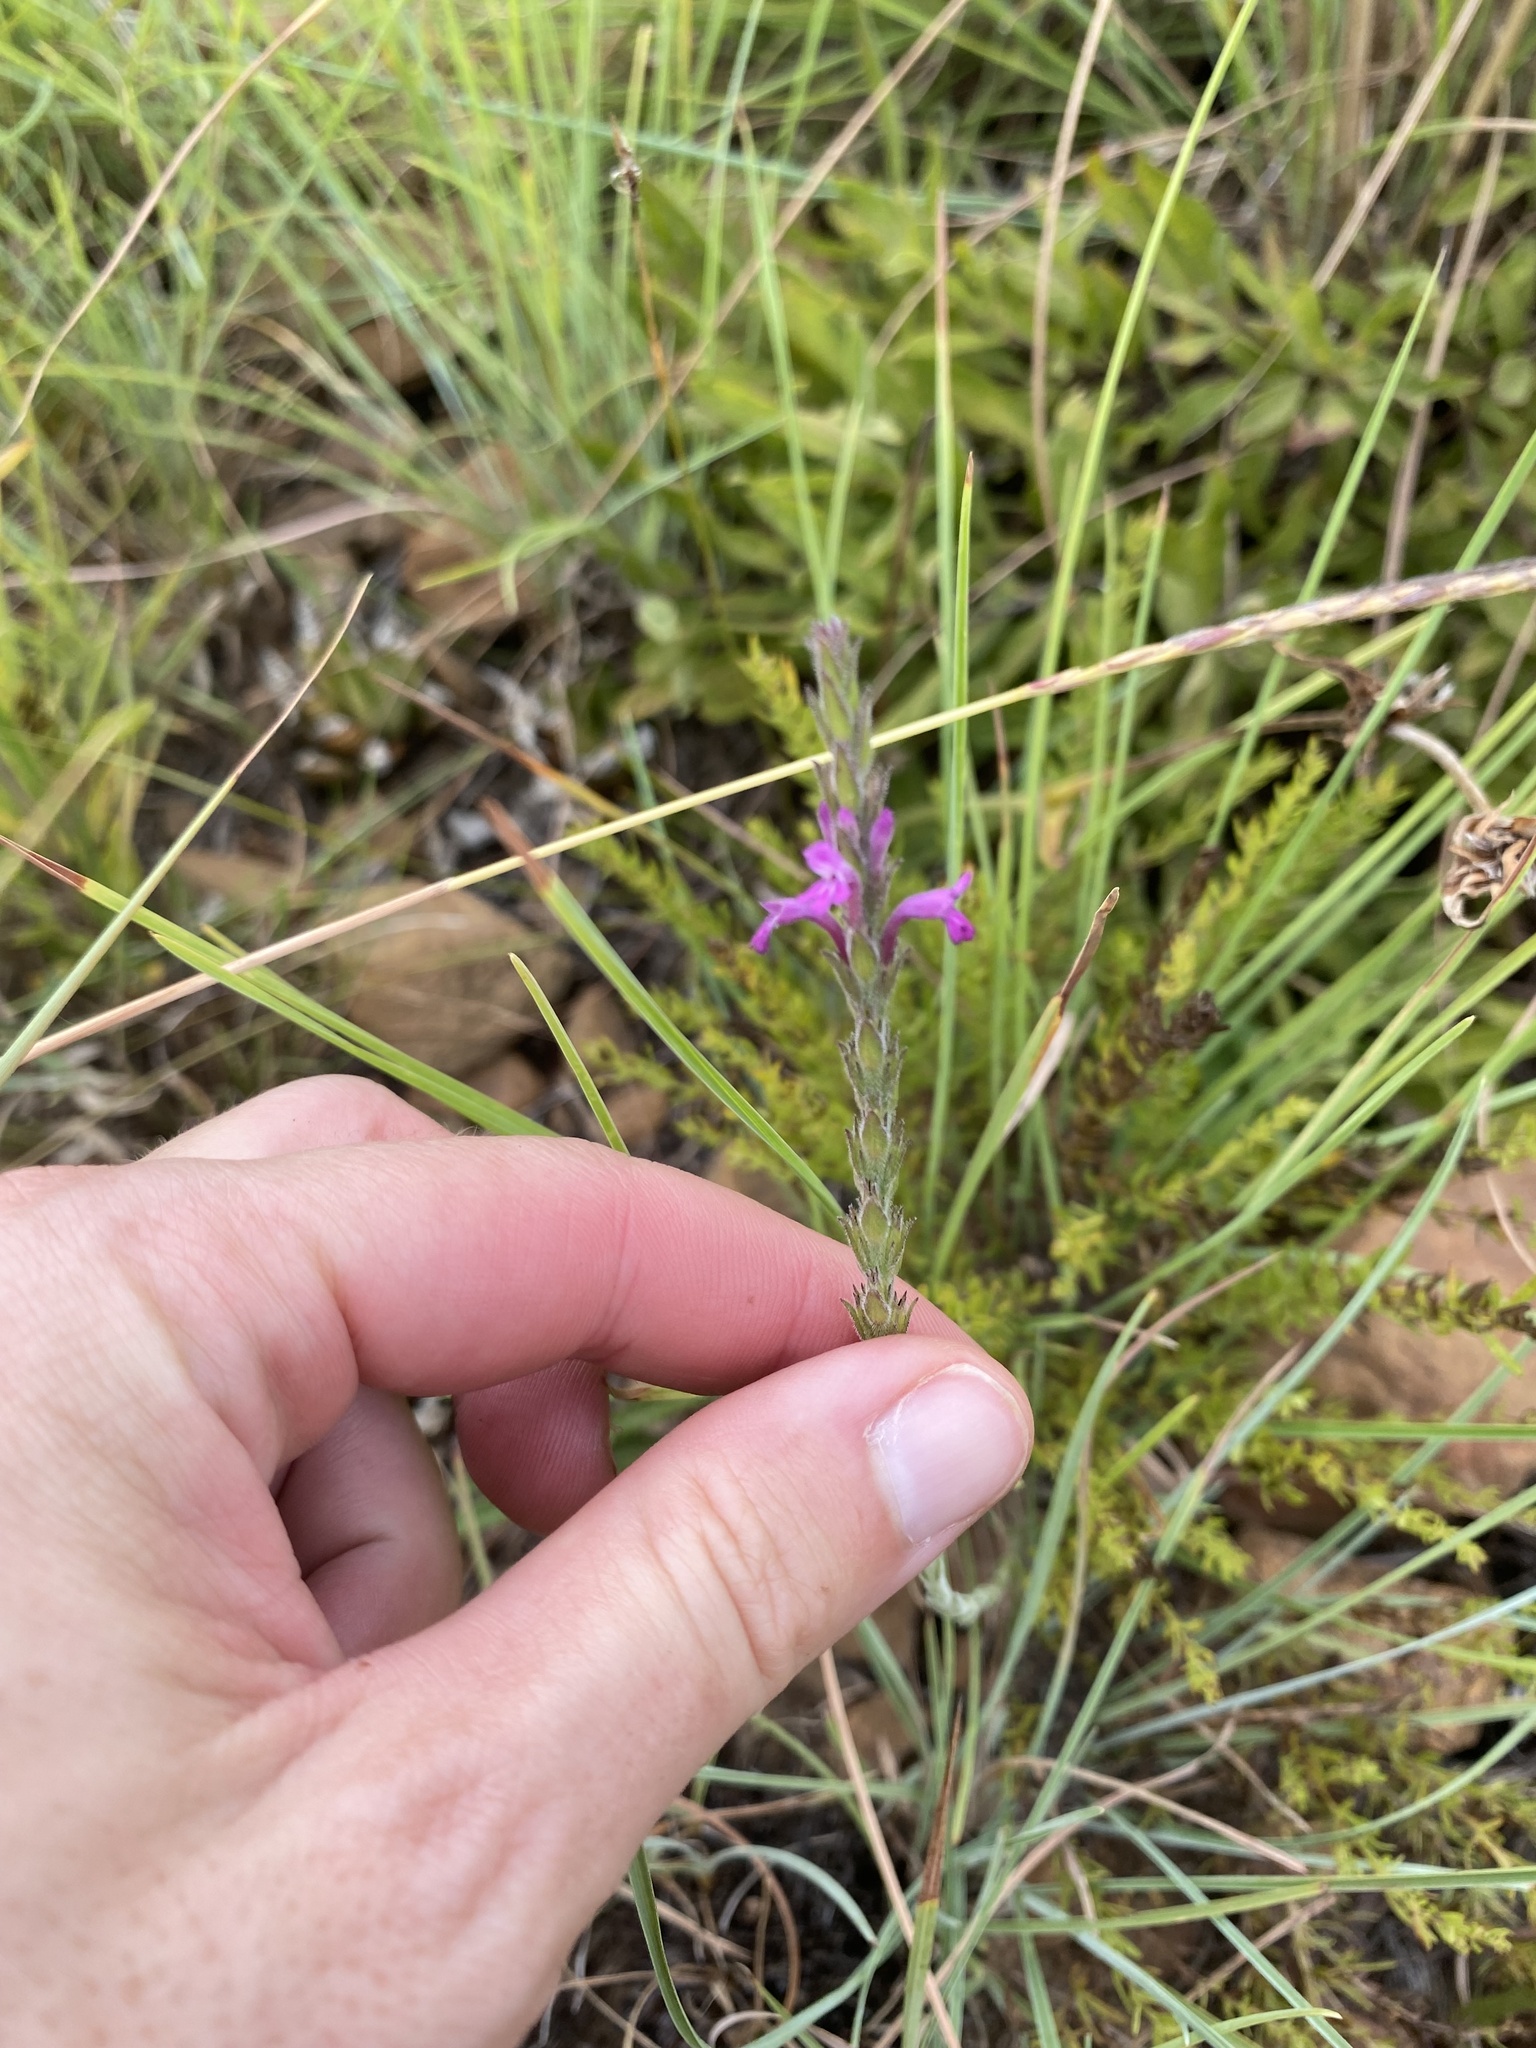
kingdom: Plantae
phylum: Tracheophyta
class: Magnoliopsida
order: Lamiales
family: Orobanchaceae
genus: Striga
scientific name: Striga bilabiata
